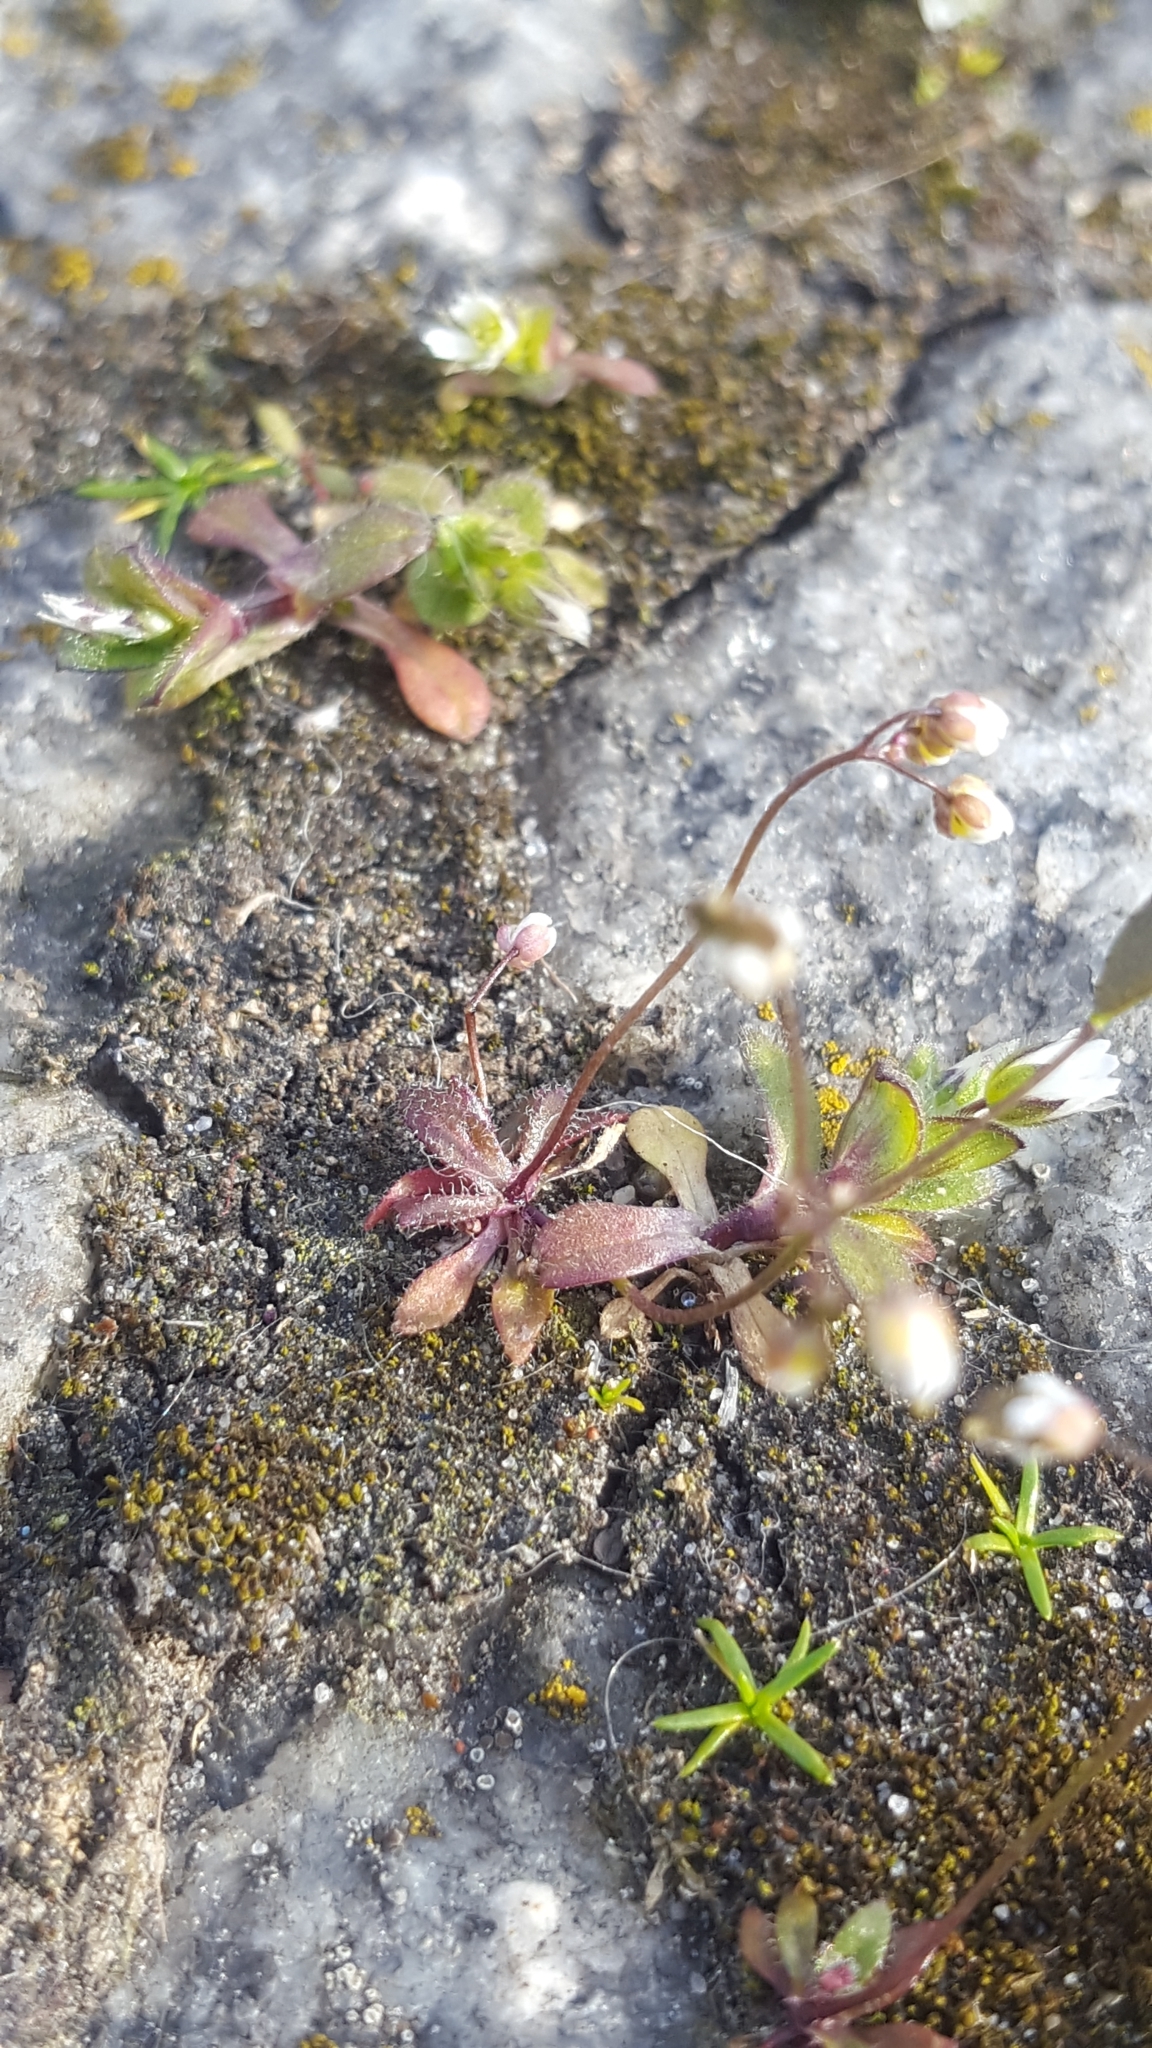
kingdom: Plantae
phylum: Tracheophyta
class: Magnoliopsida
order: Caryophyllales
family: Caryophyllaceae
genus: Sagina
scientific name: Sagina procumbens
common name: Procumbent pearlwort
